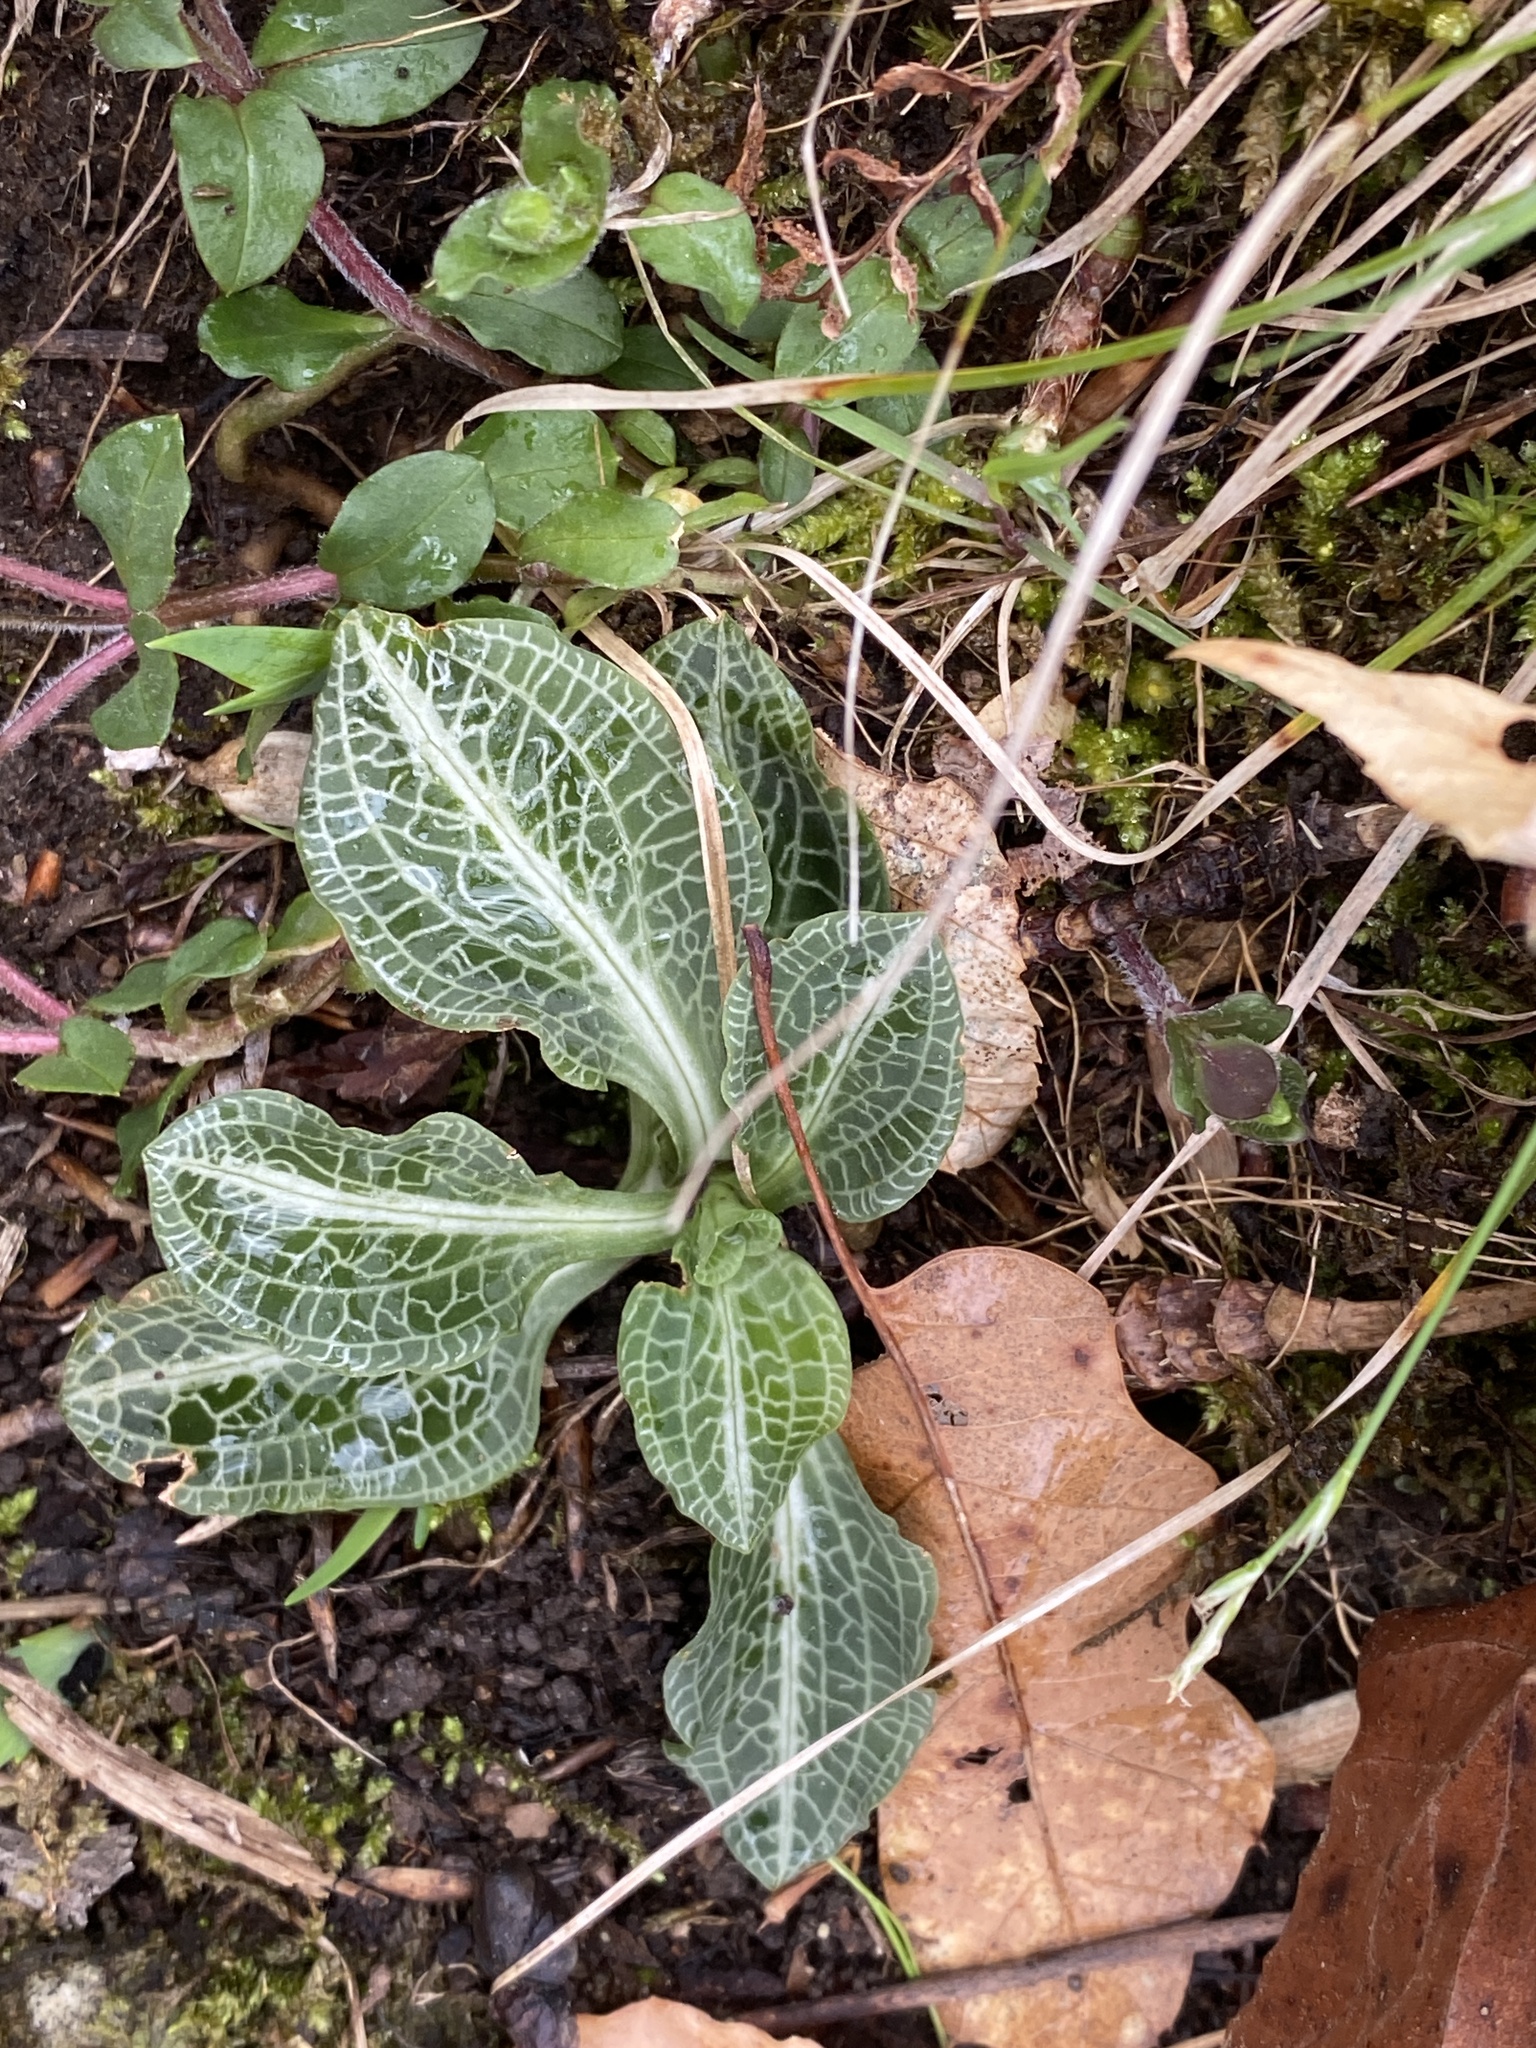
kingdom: Plantae
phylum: Tracheophyta
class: Liliopsida
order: Asparagales
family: Orchidaceae
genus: Goodyera
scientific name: Goodyera pubescens
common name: Downy rattlesnake-plantain
